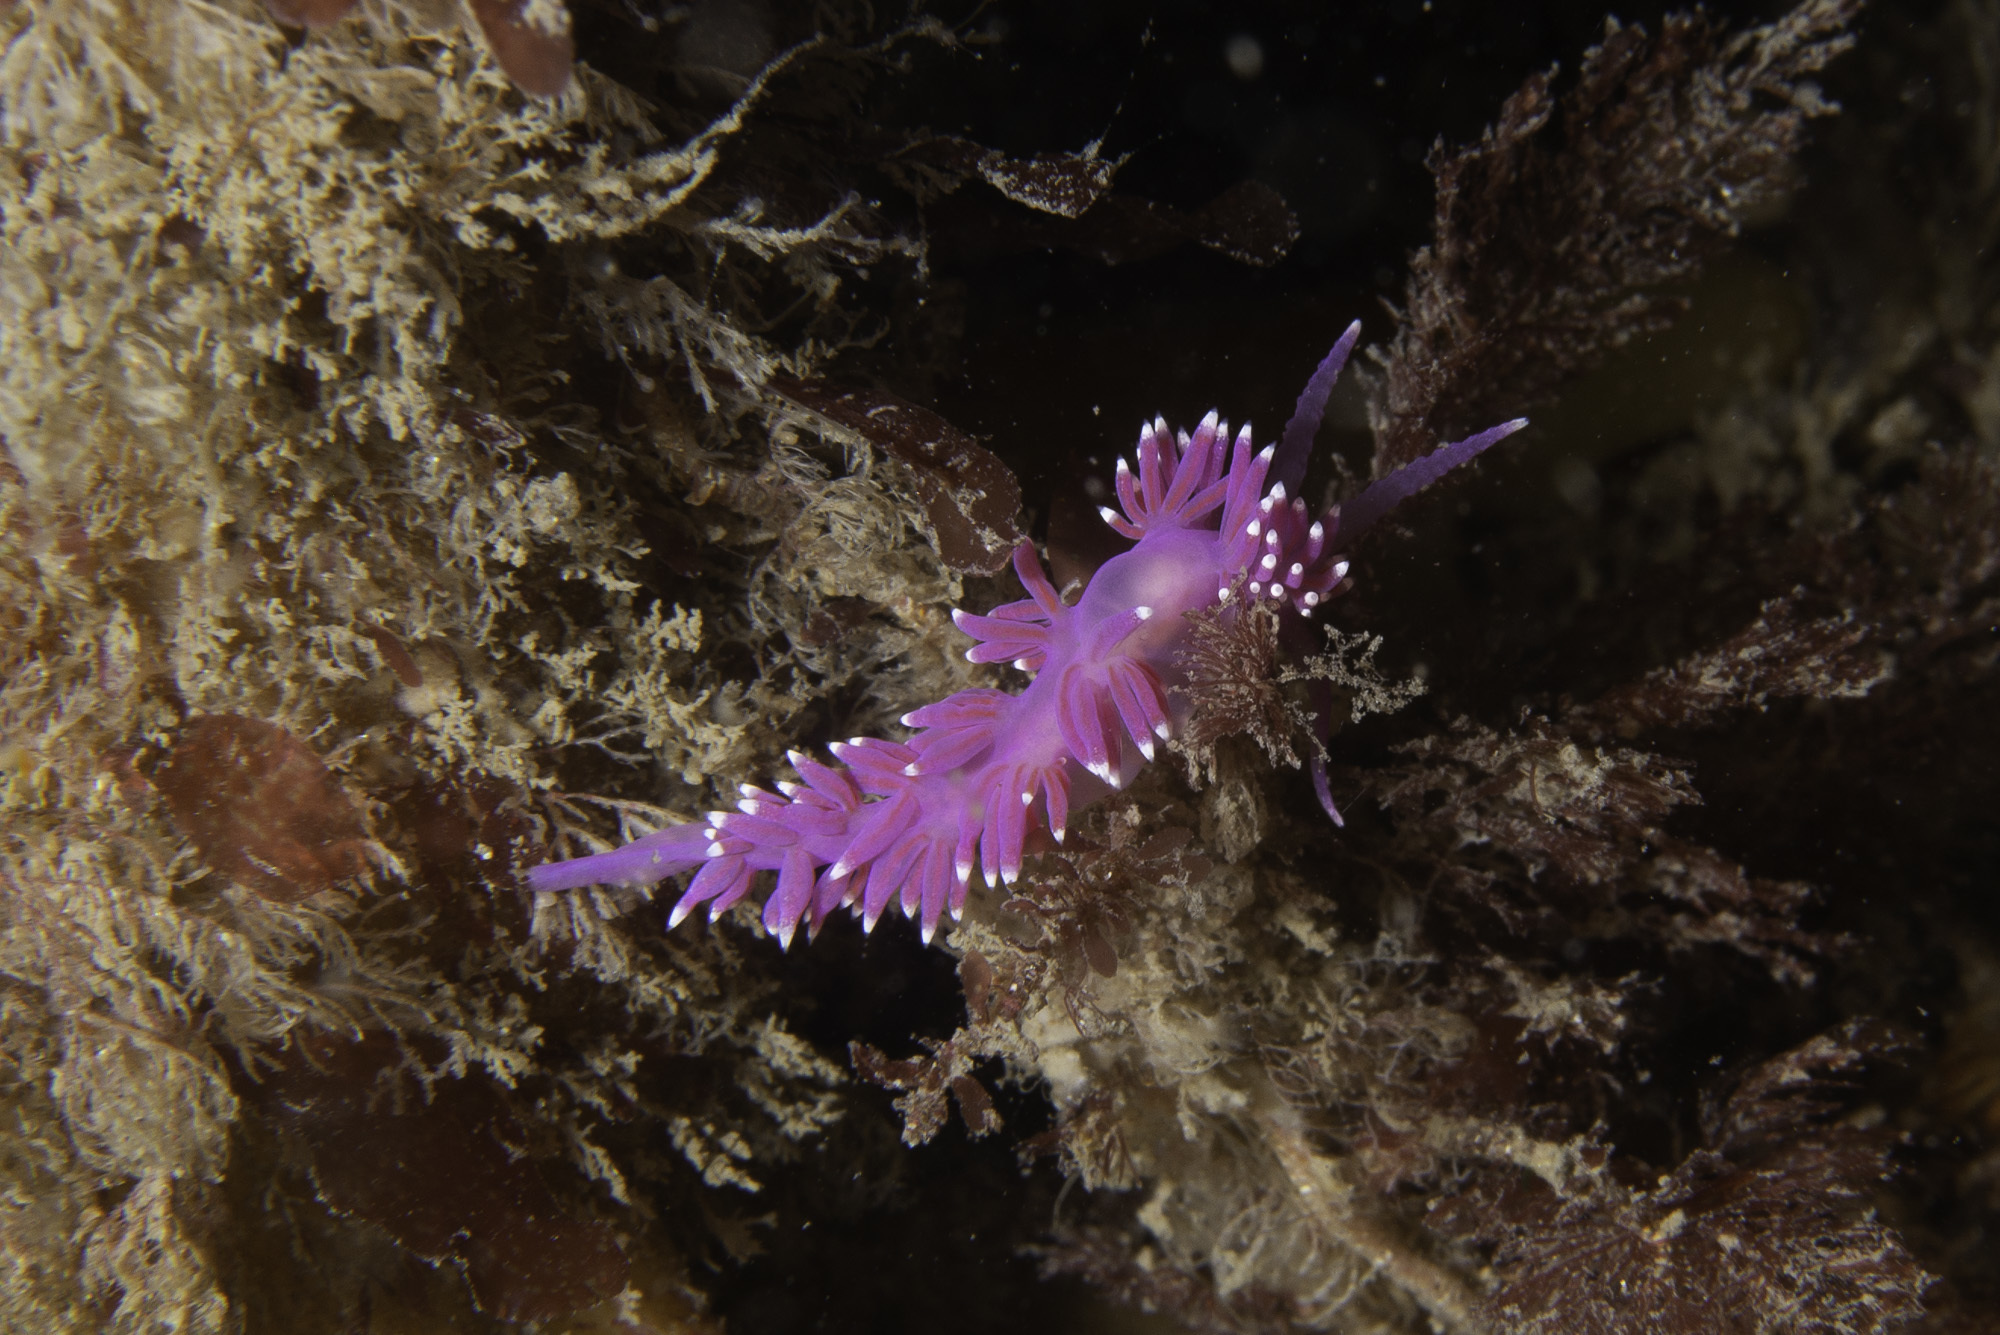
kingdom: Animalia
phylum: Mollusca
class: Gastropoda
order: Nudibranchia
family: Flabellinidae
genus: Edmundsella
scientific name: Edmundsella pedata
